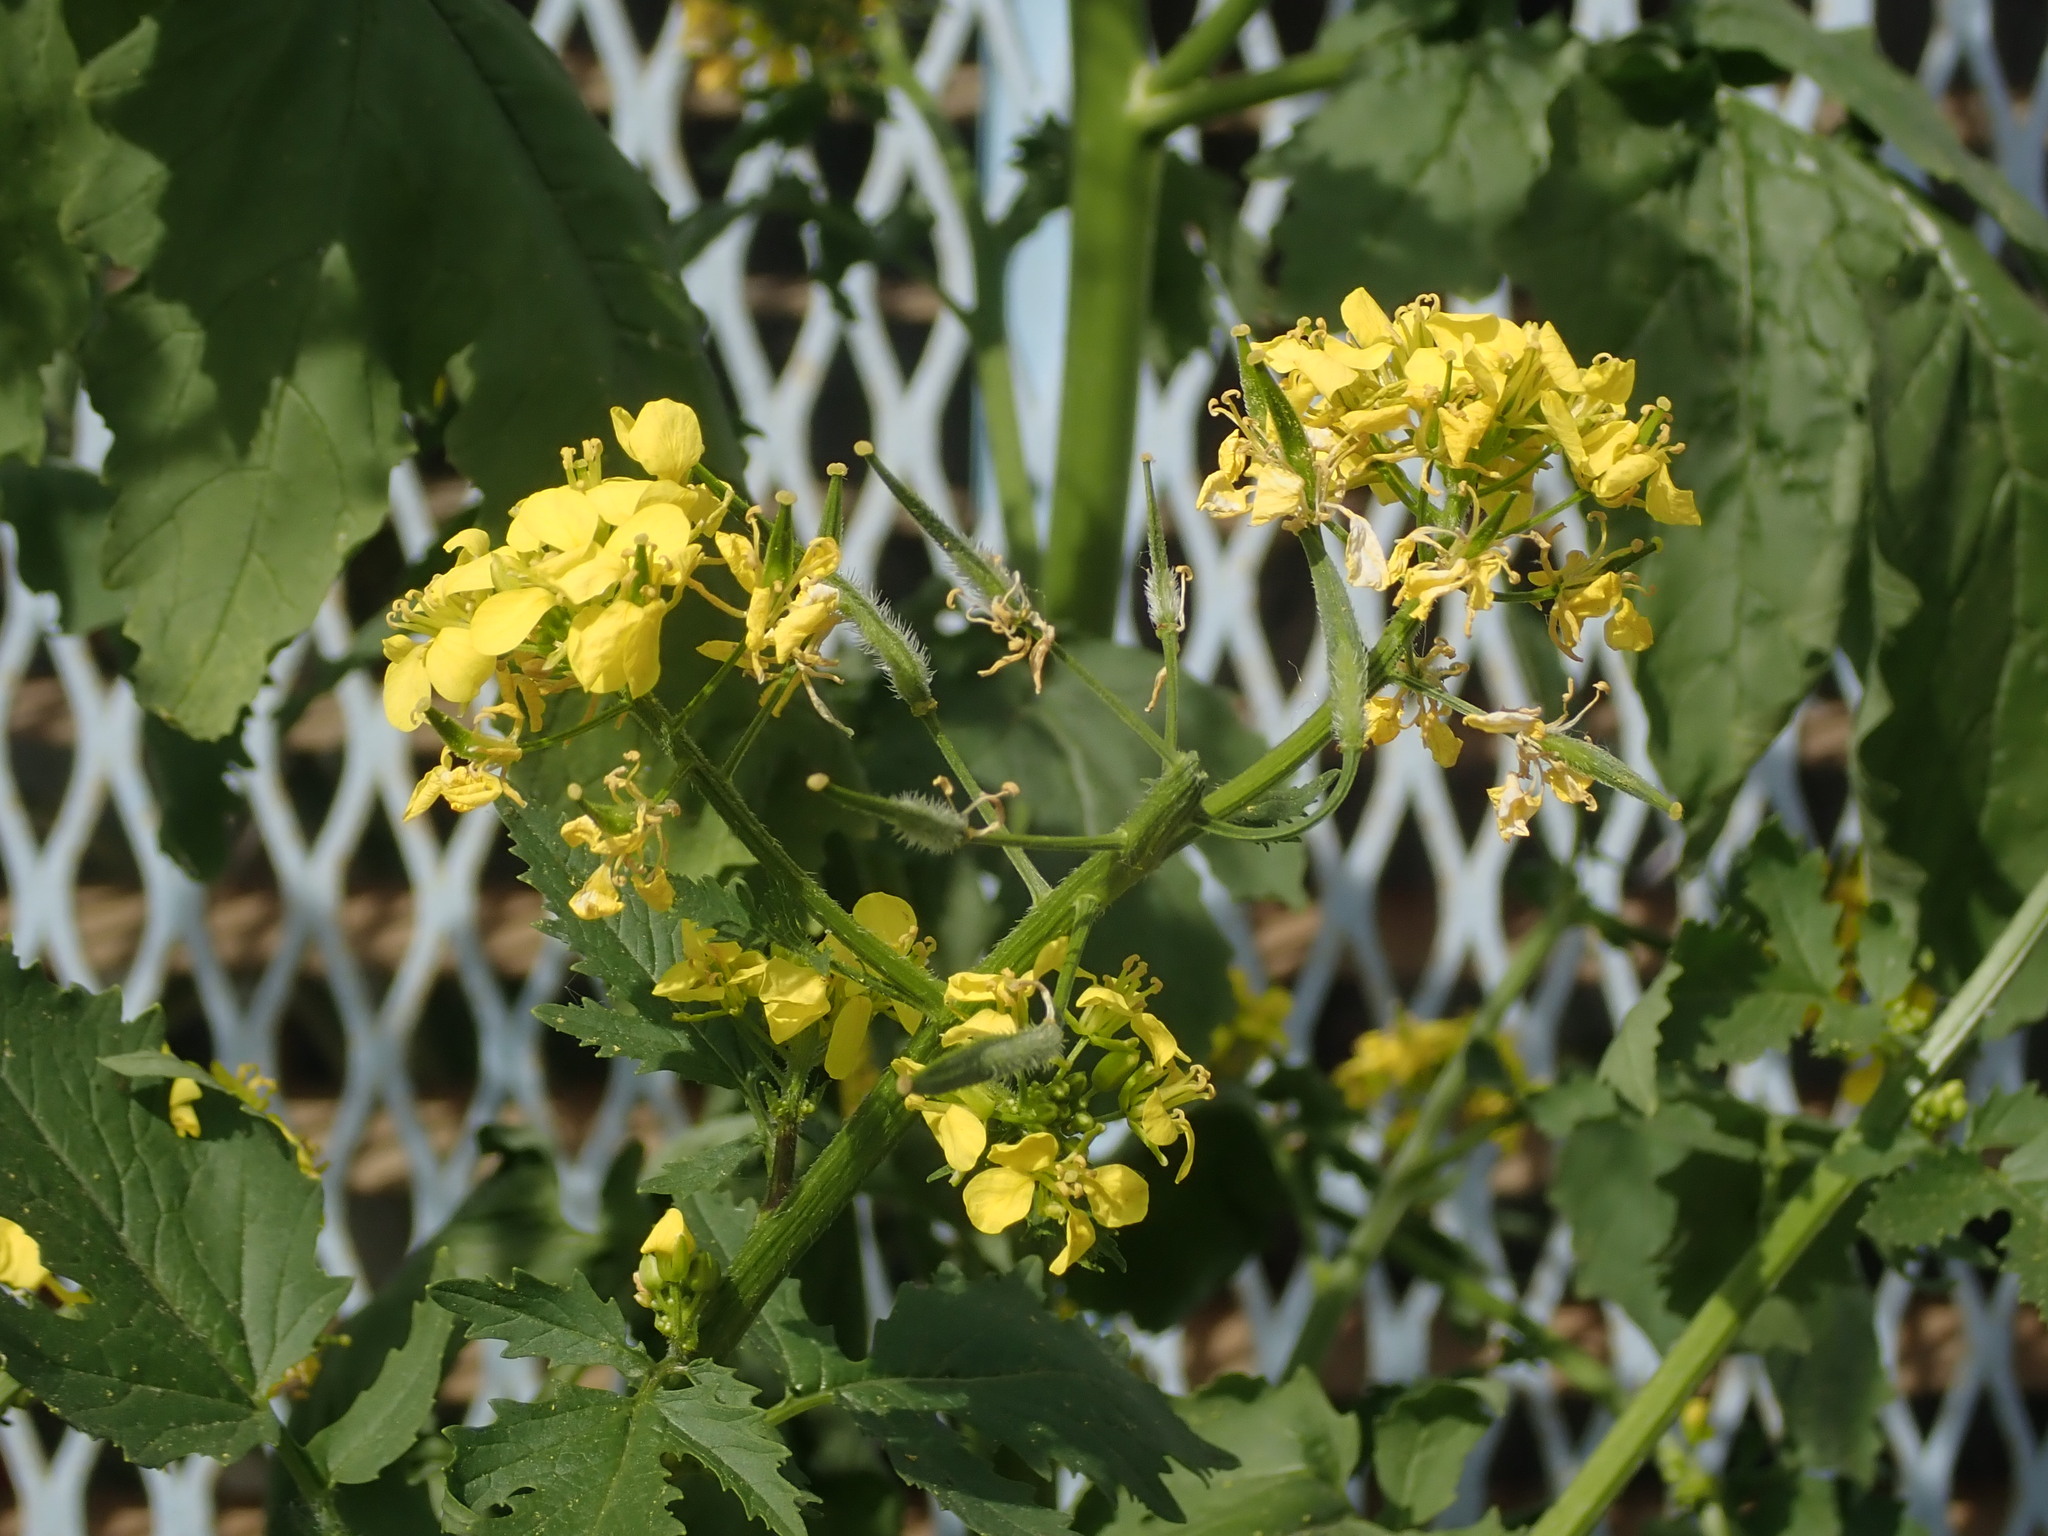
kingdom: Plantae
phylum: Tracheophyta
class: Magnoliopsida
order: Brassicales
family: Brassicaceae
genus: Sinapis
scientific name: Sinapis alba
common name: White mustard
